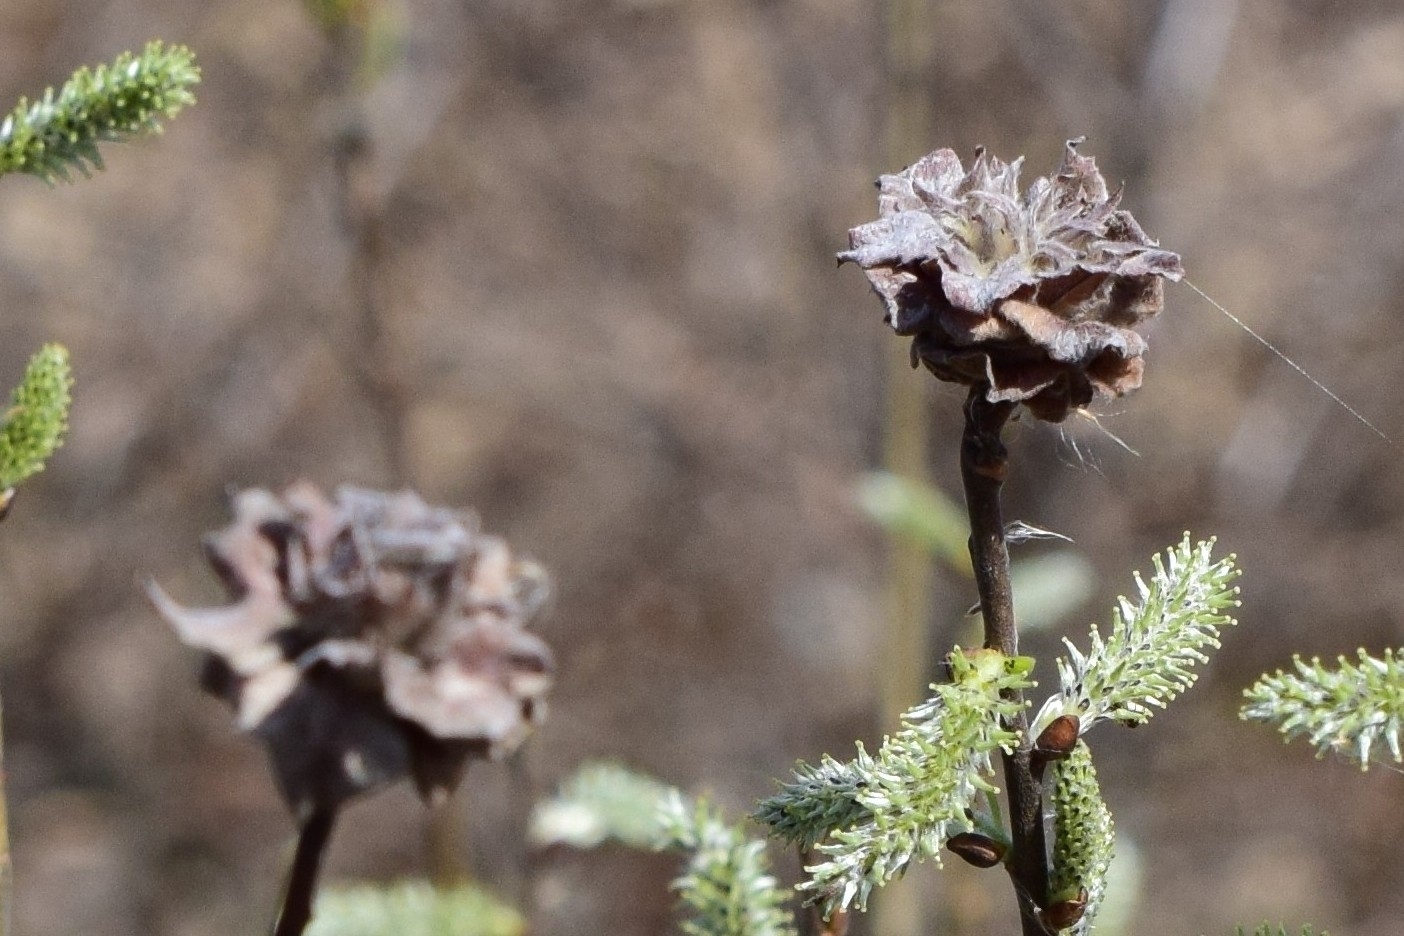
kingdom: Animalia
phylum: Arthropoda
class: Insecta
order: Diptera
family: Cecidomyiidae
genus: Rabdophaga
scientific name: Rabdophaga rosaria
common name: Willow rose gall midge
